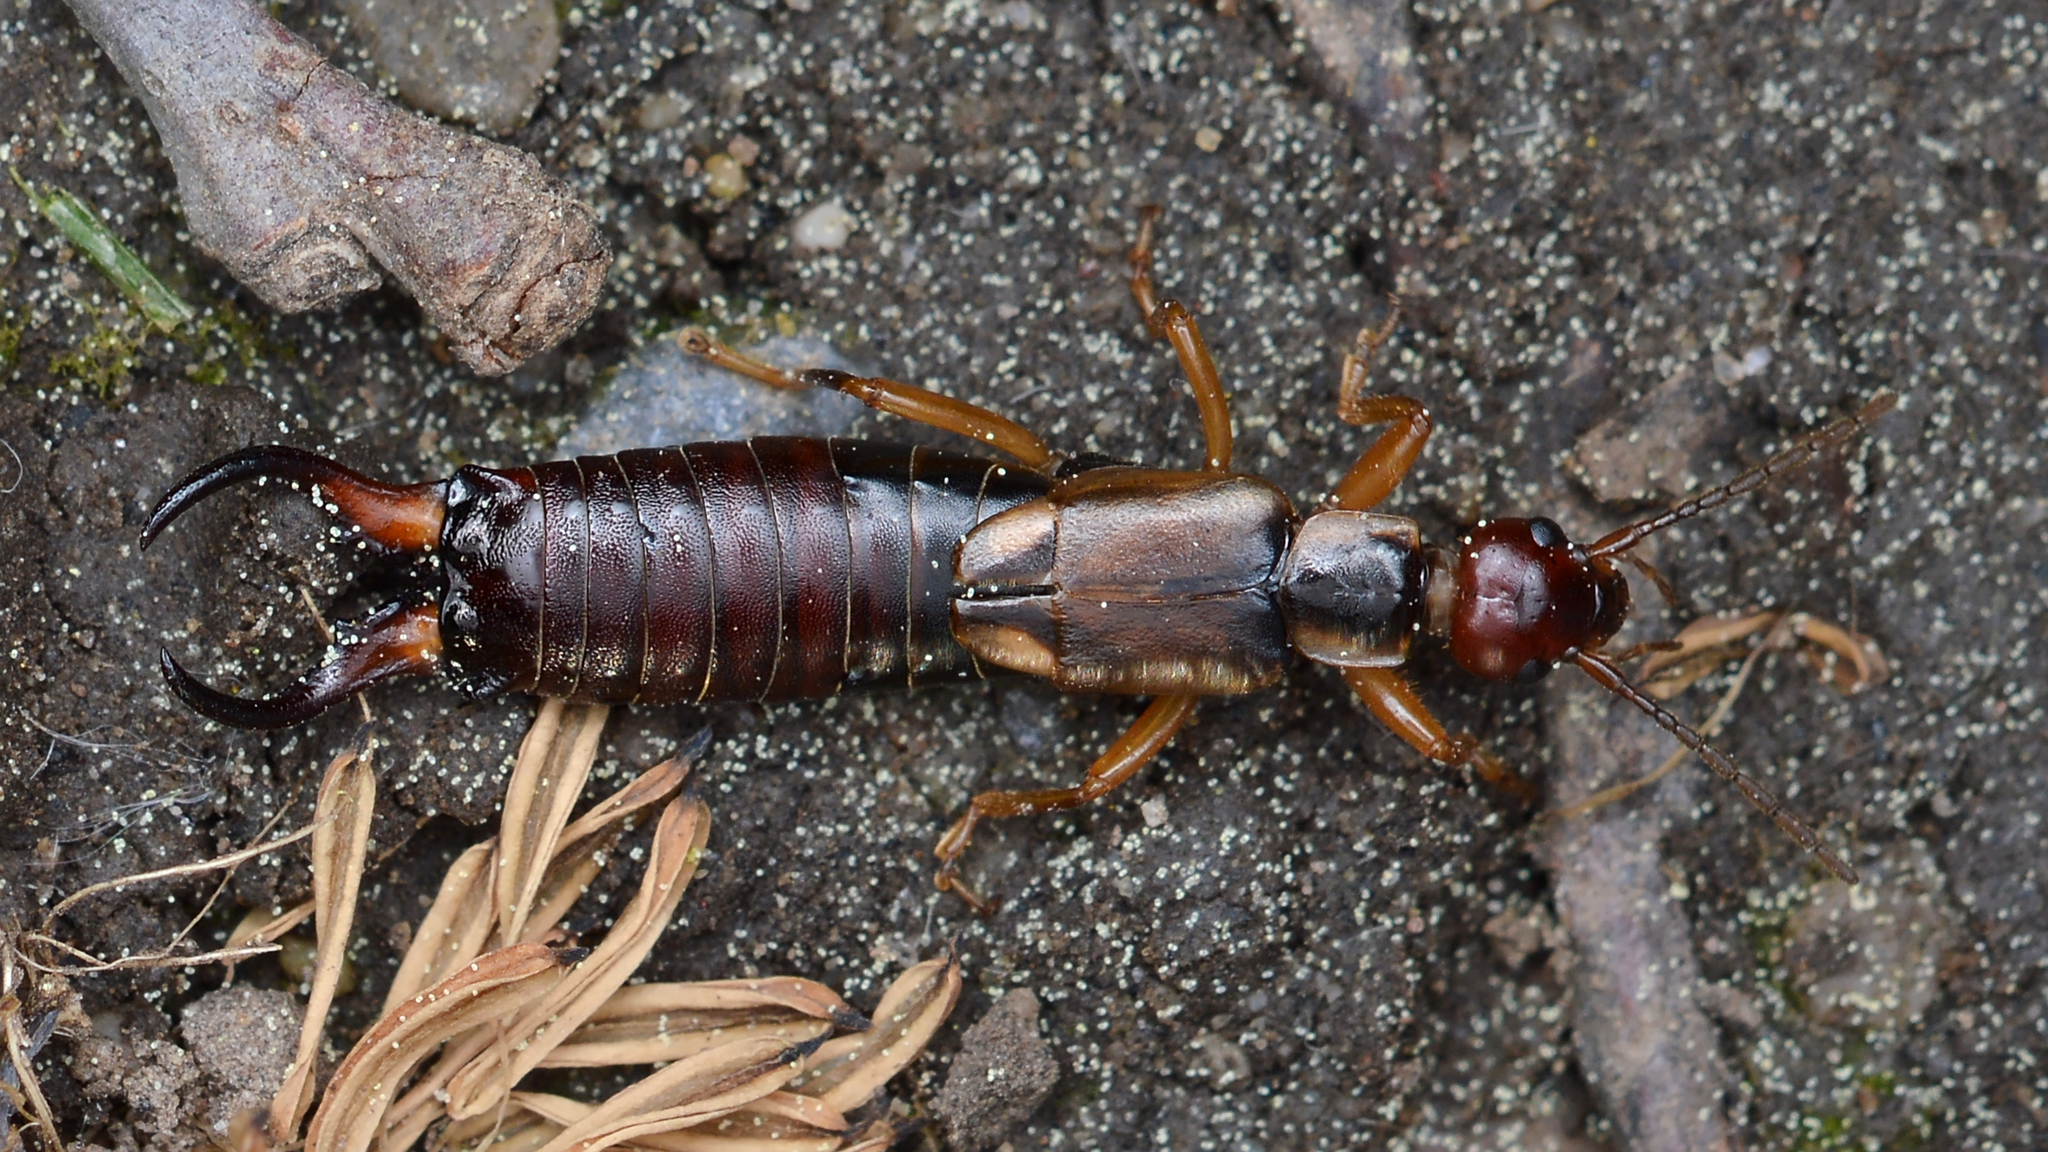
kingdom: Animalia
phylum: Arthropoda
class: Insecta
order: Dermaptera
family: Forficulidae
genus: Forficula
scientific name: Forficula
